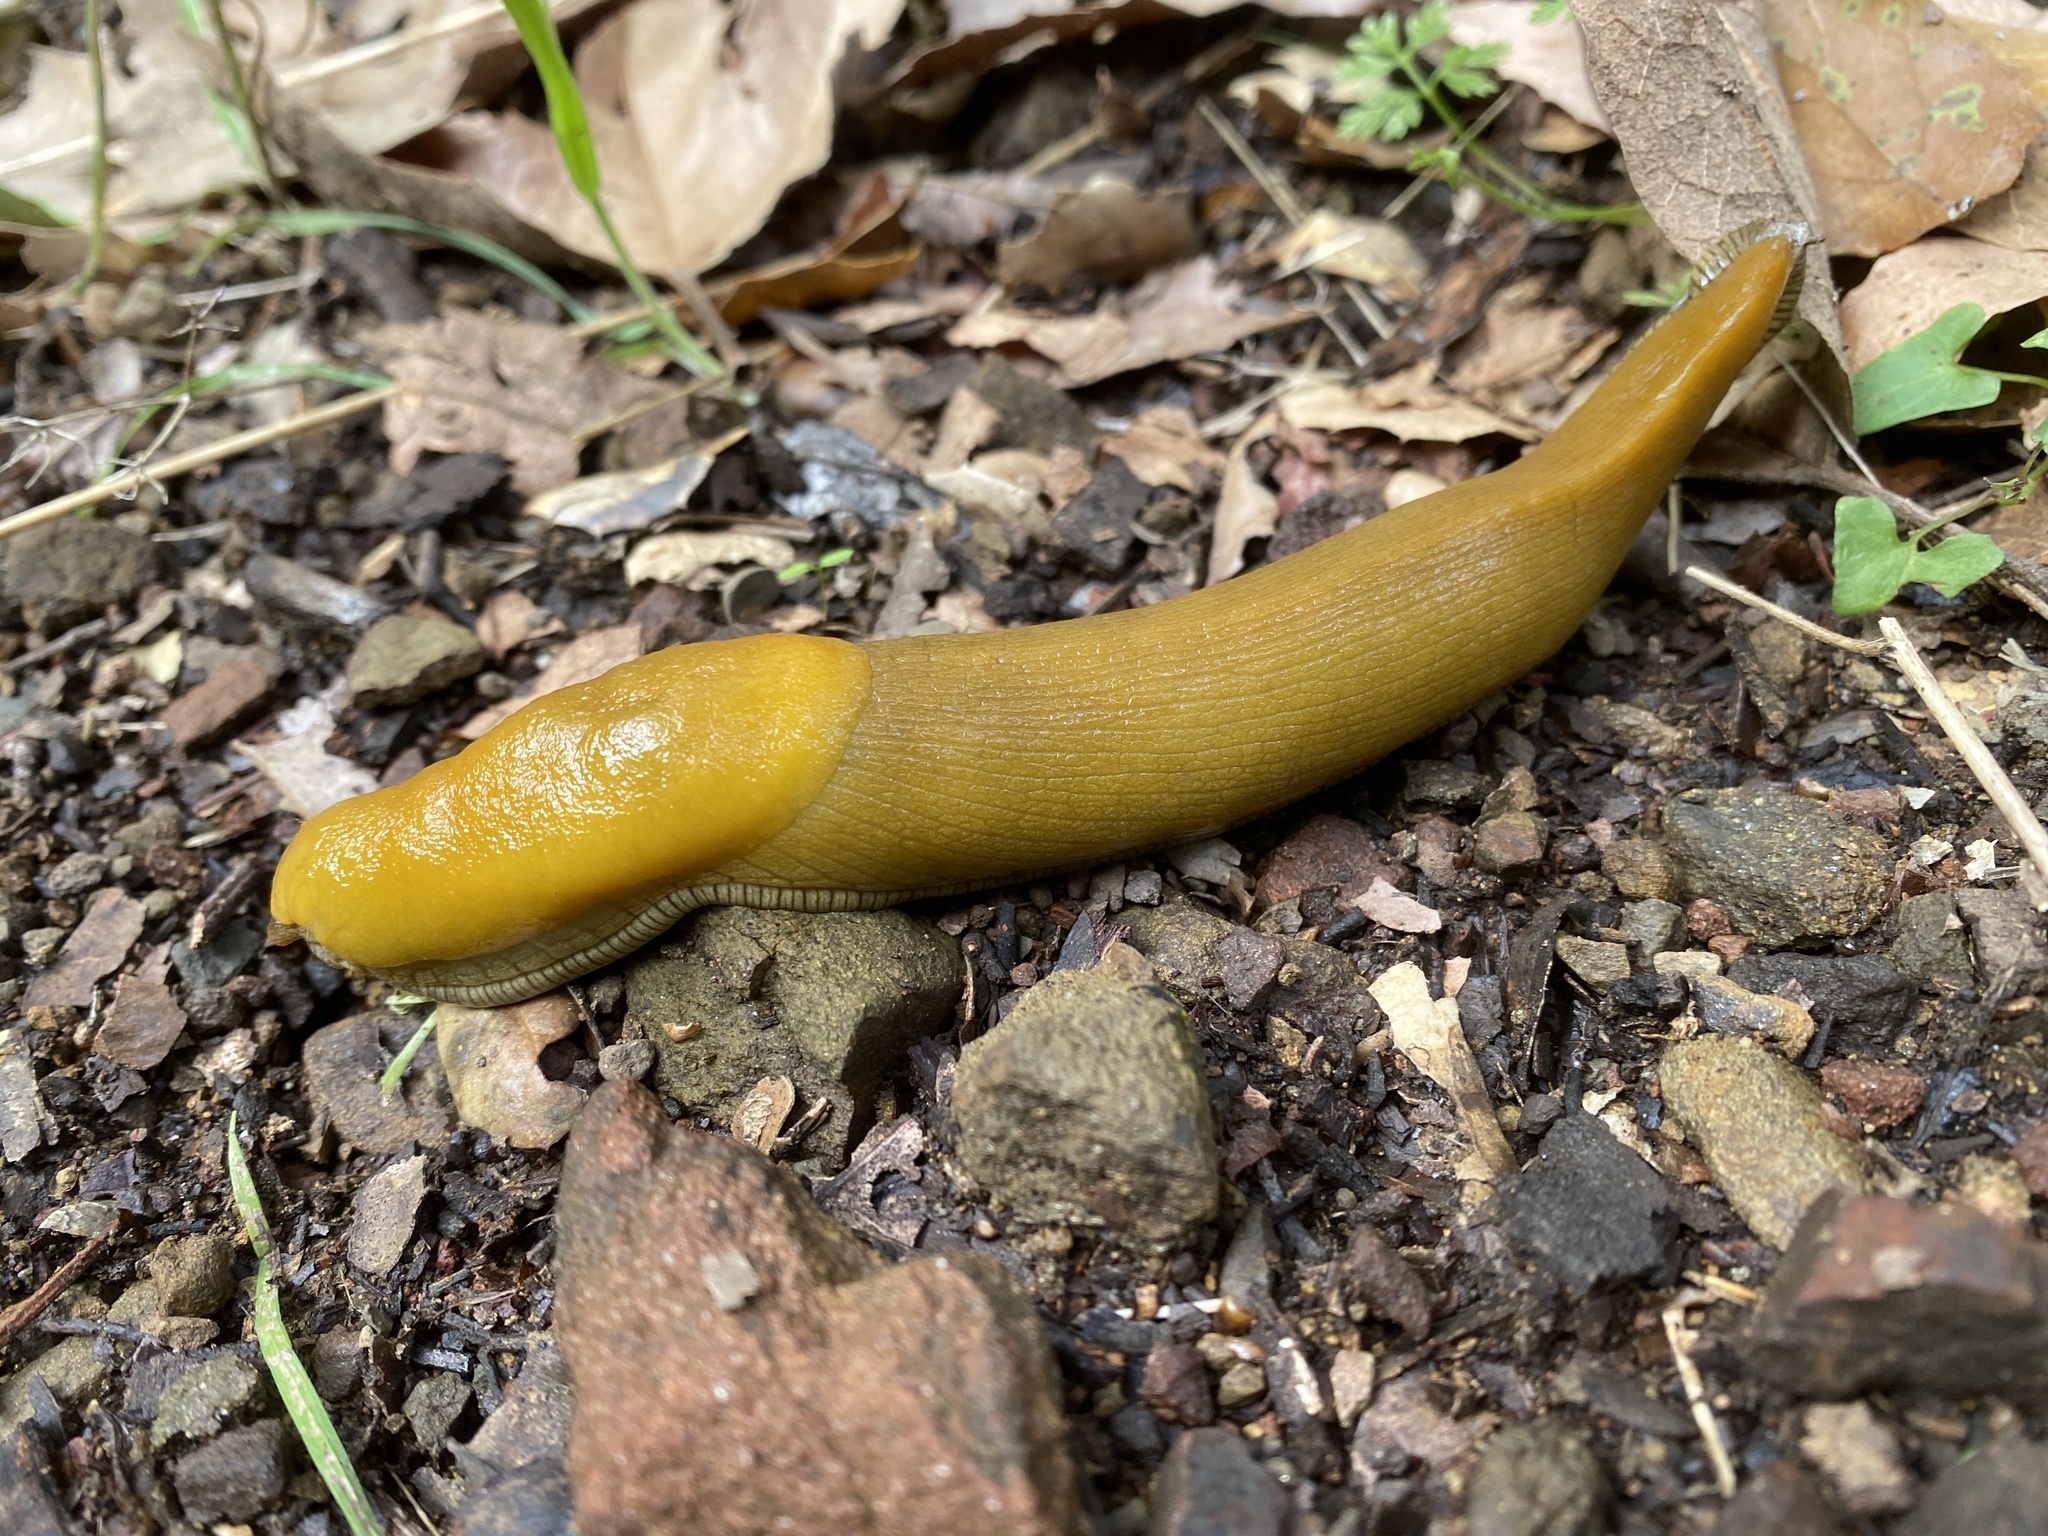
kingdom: Animalia
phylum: Mollusca
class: Gastropoda
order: Stylommatophora
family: Ariolimacidae
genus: Ariolimax
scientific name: Ariolimax stramineus
